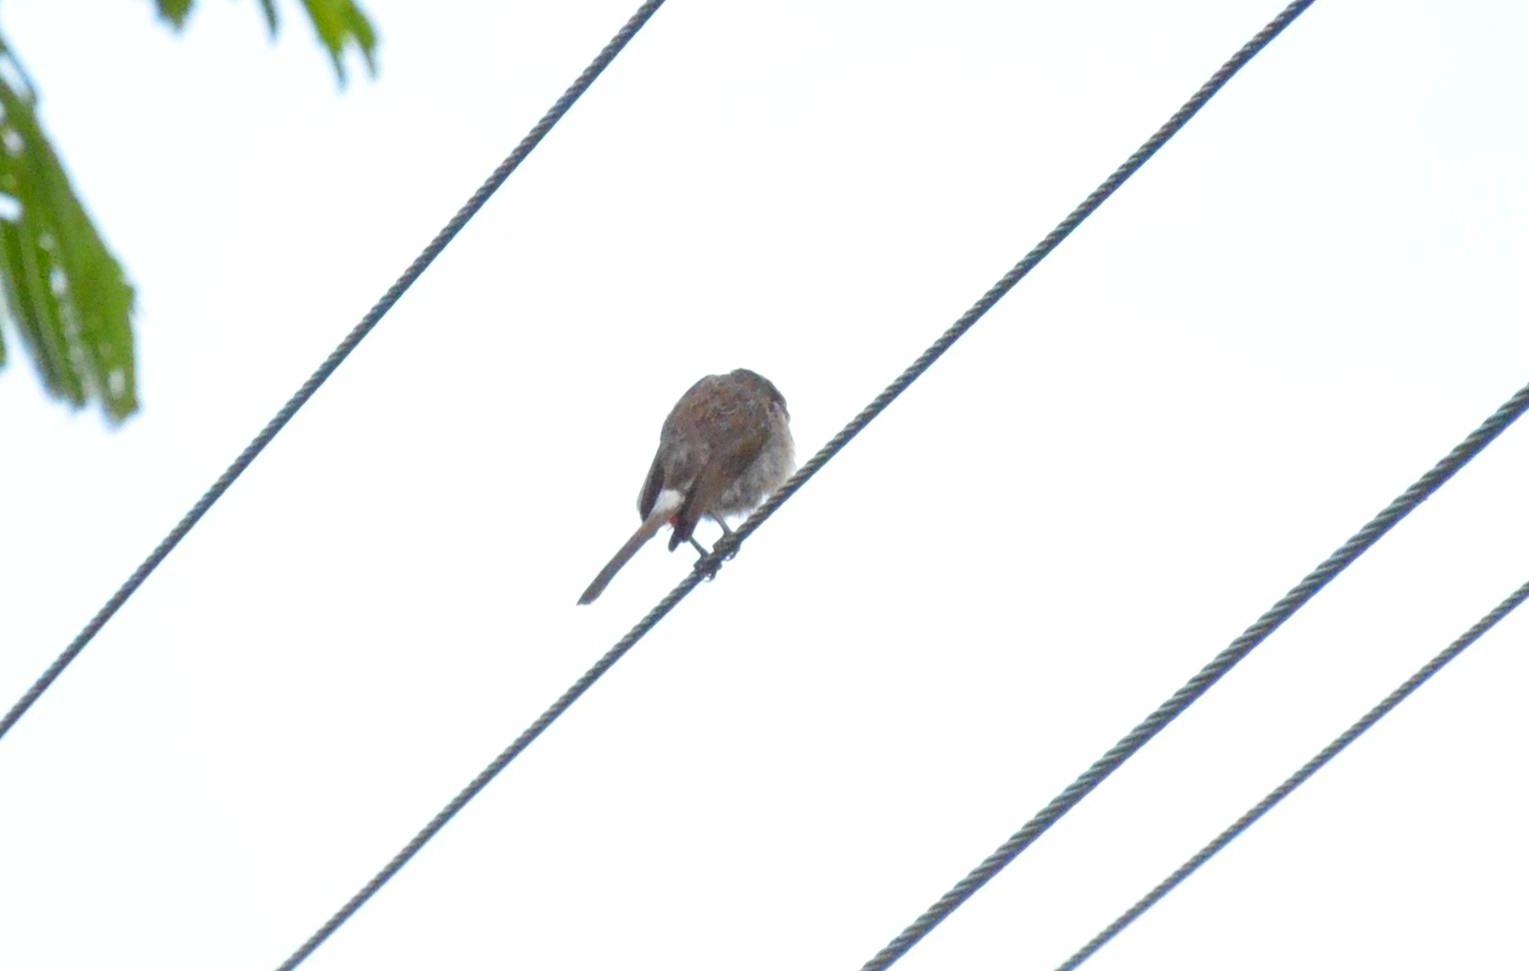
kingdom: Animalia
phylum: Chordata
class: Aves
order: Passeriformes
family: Pycnonotidae
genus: Pycnonotus
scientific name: Pycnonotus cafer
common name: Red-vented bulbul
